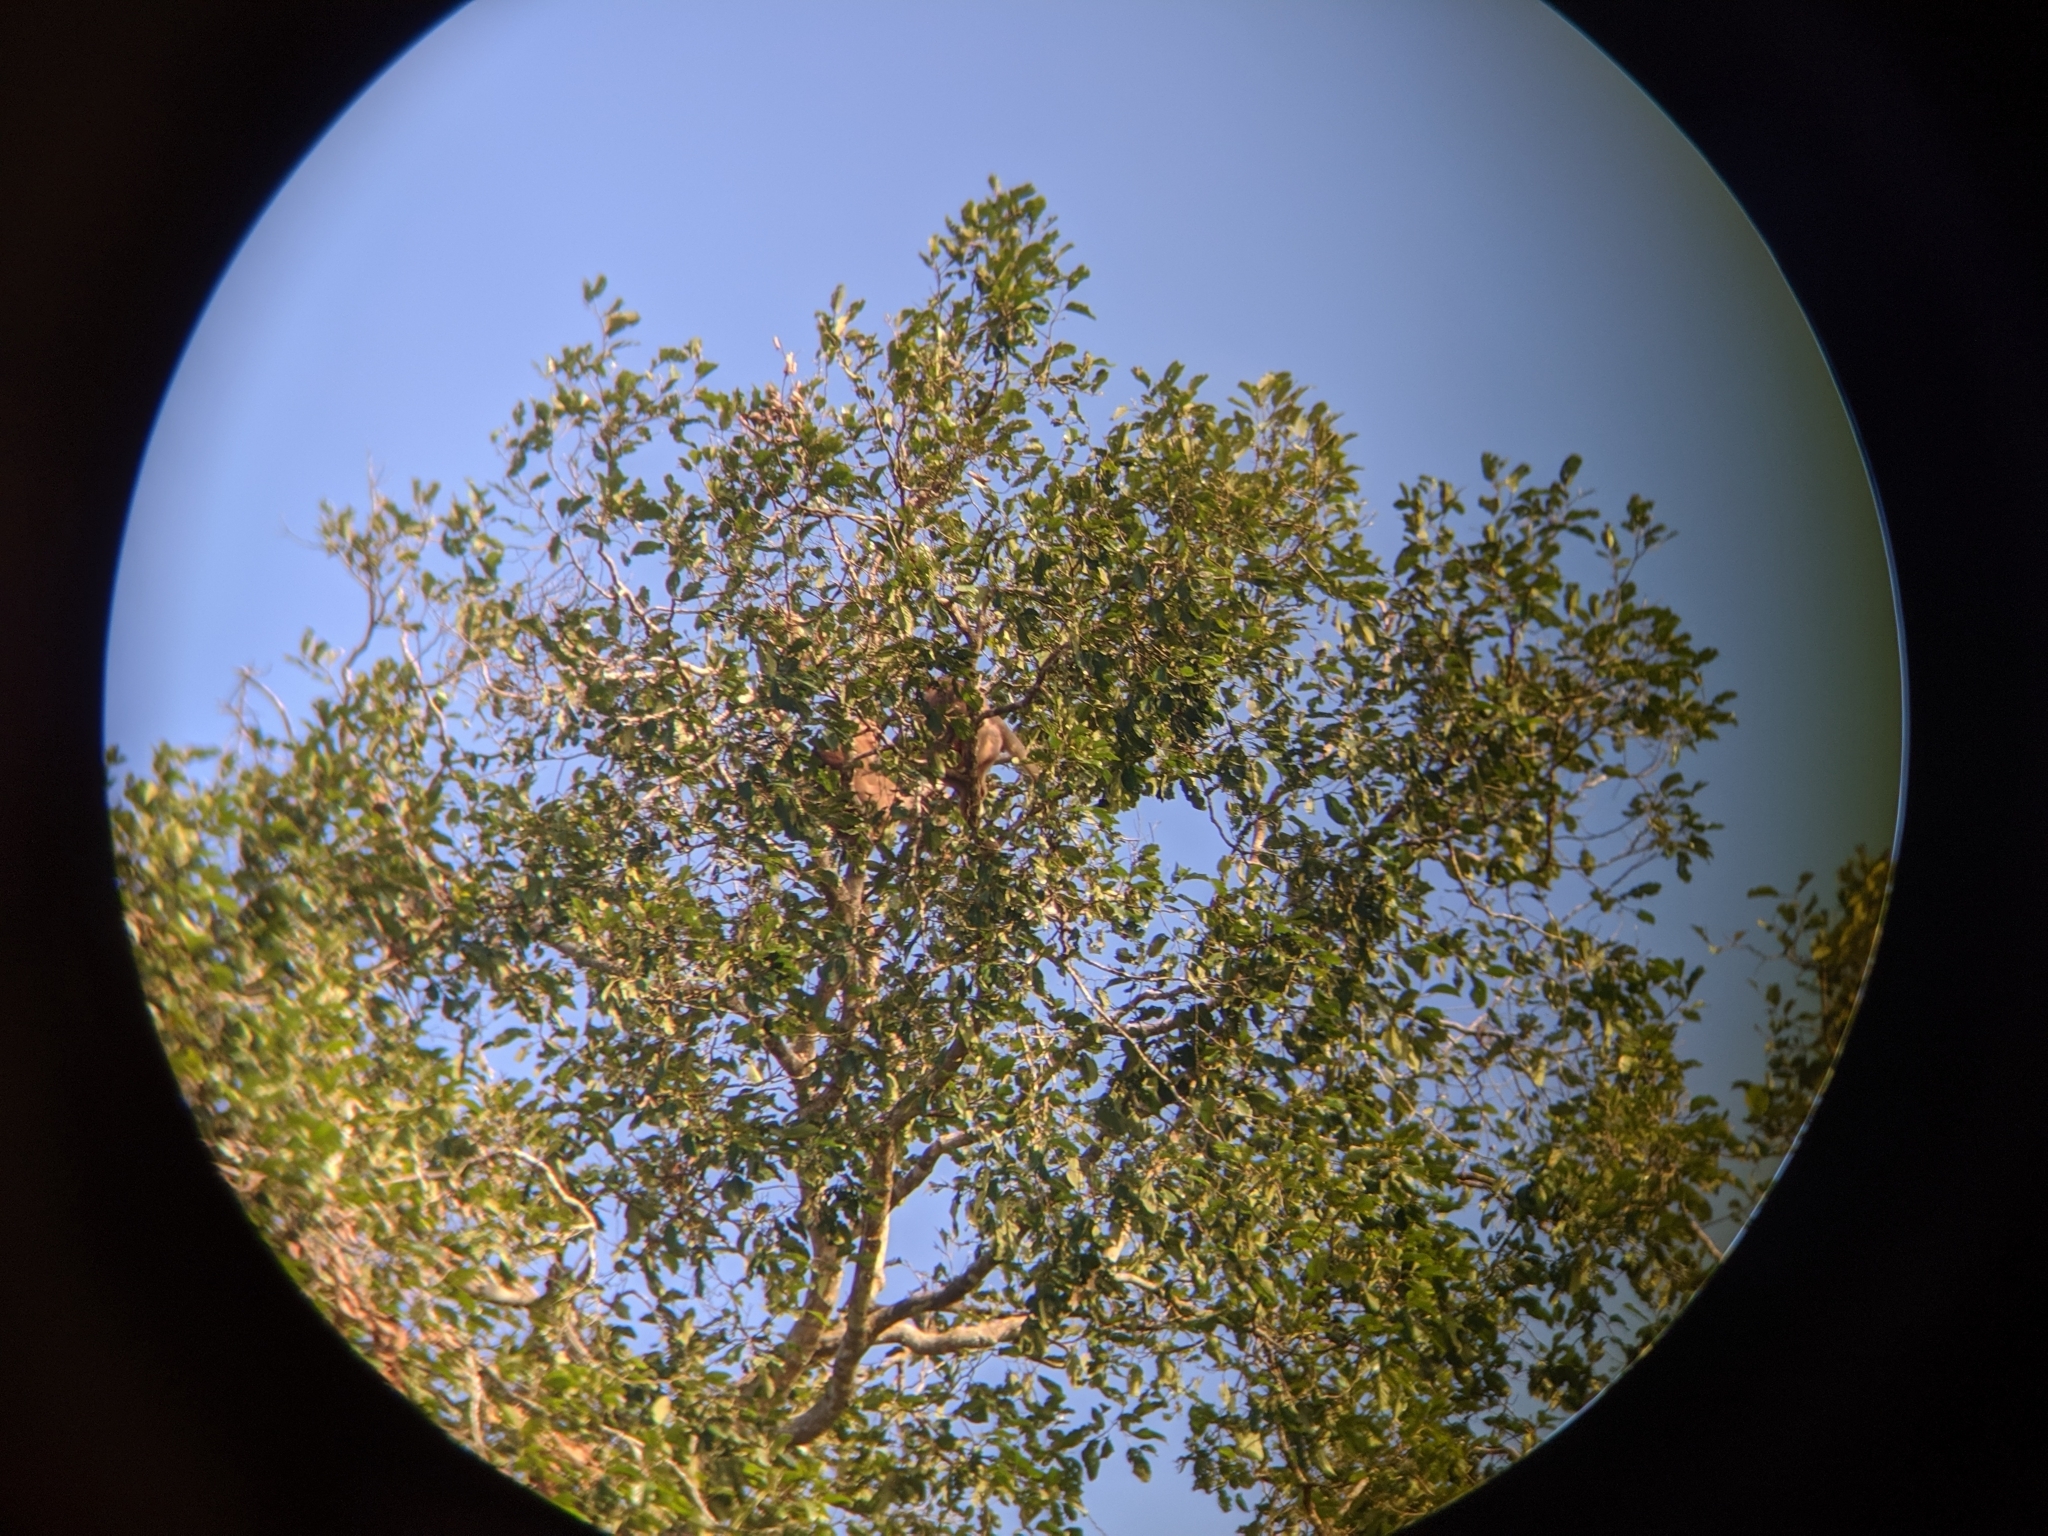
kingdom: Animalia
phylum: Chordata
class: Mammalia
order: Primates
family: Cercopithecidae
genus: Macaca
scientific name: Macaca nemestrina
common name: Southern pig-tailed macaque
